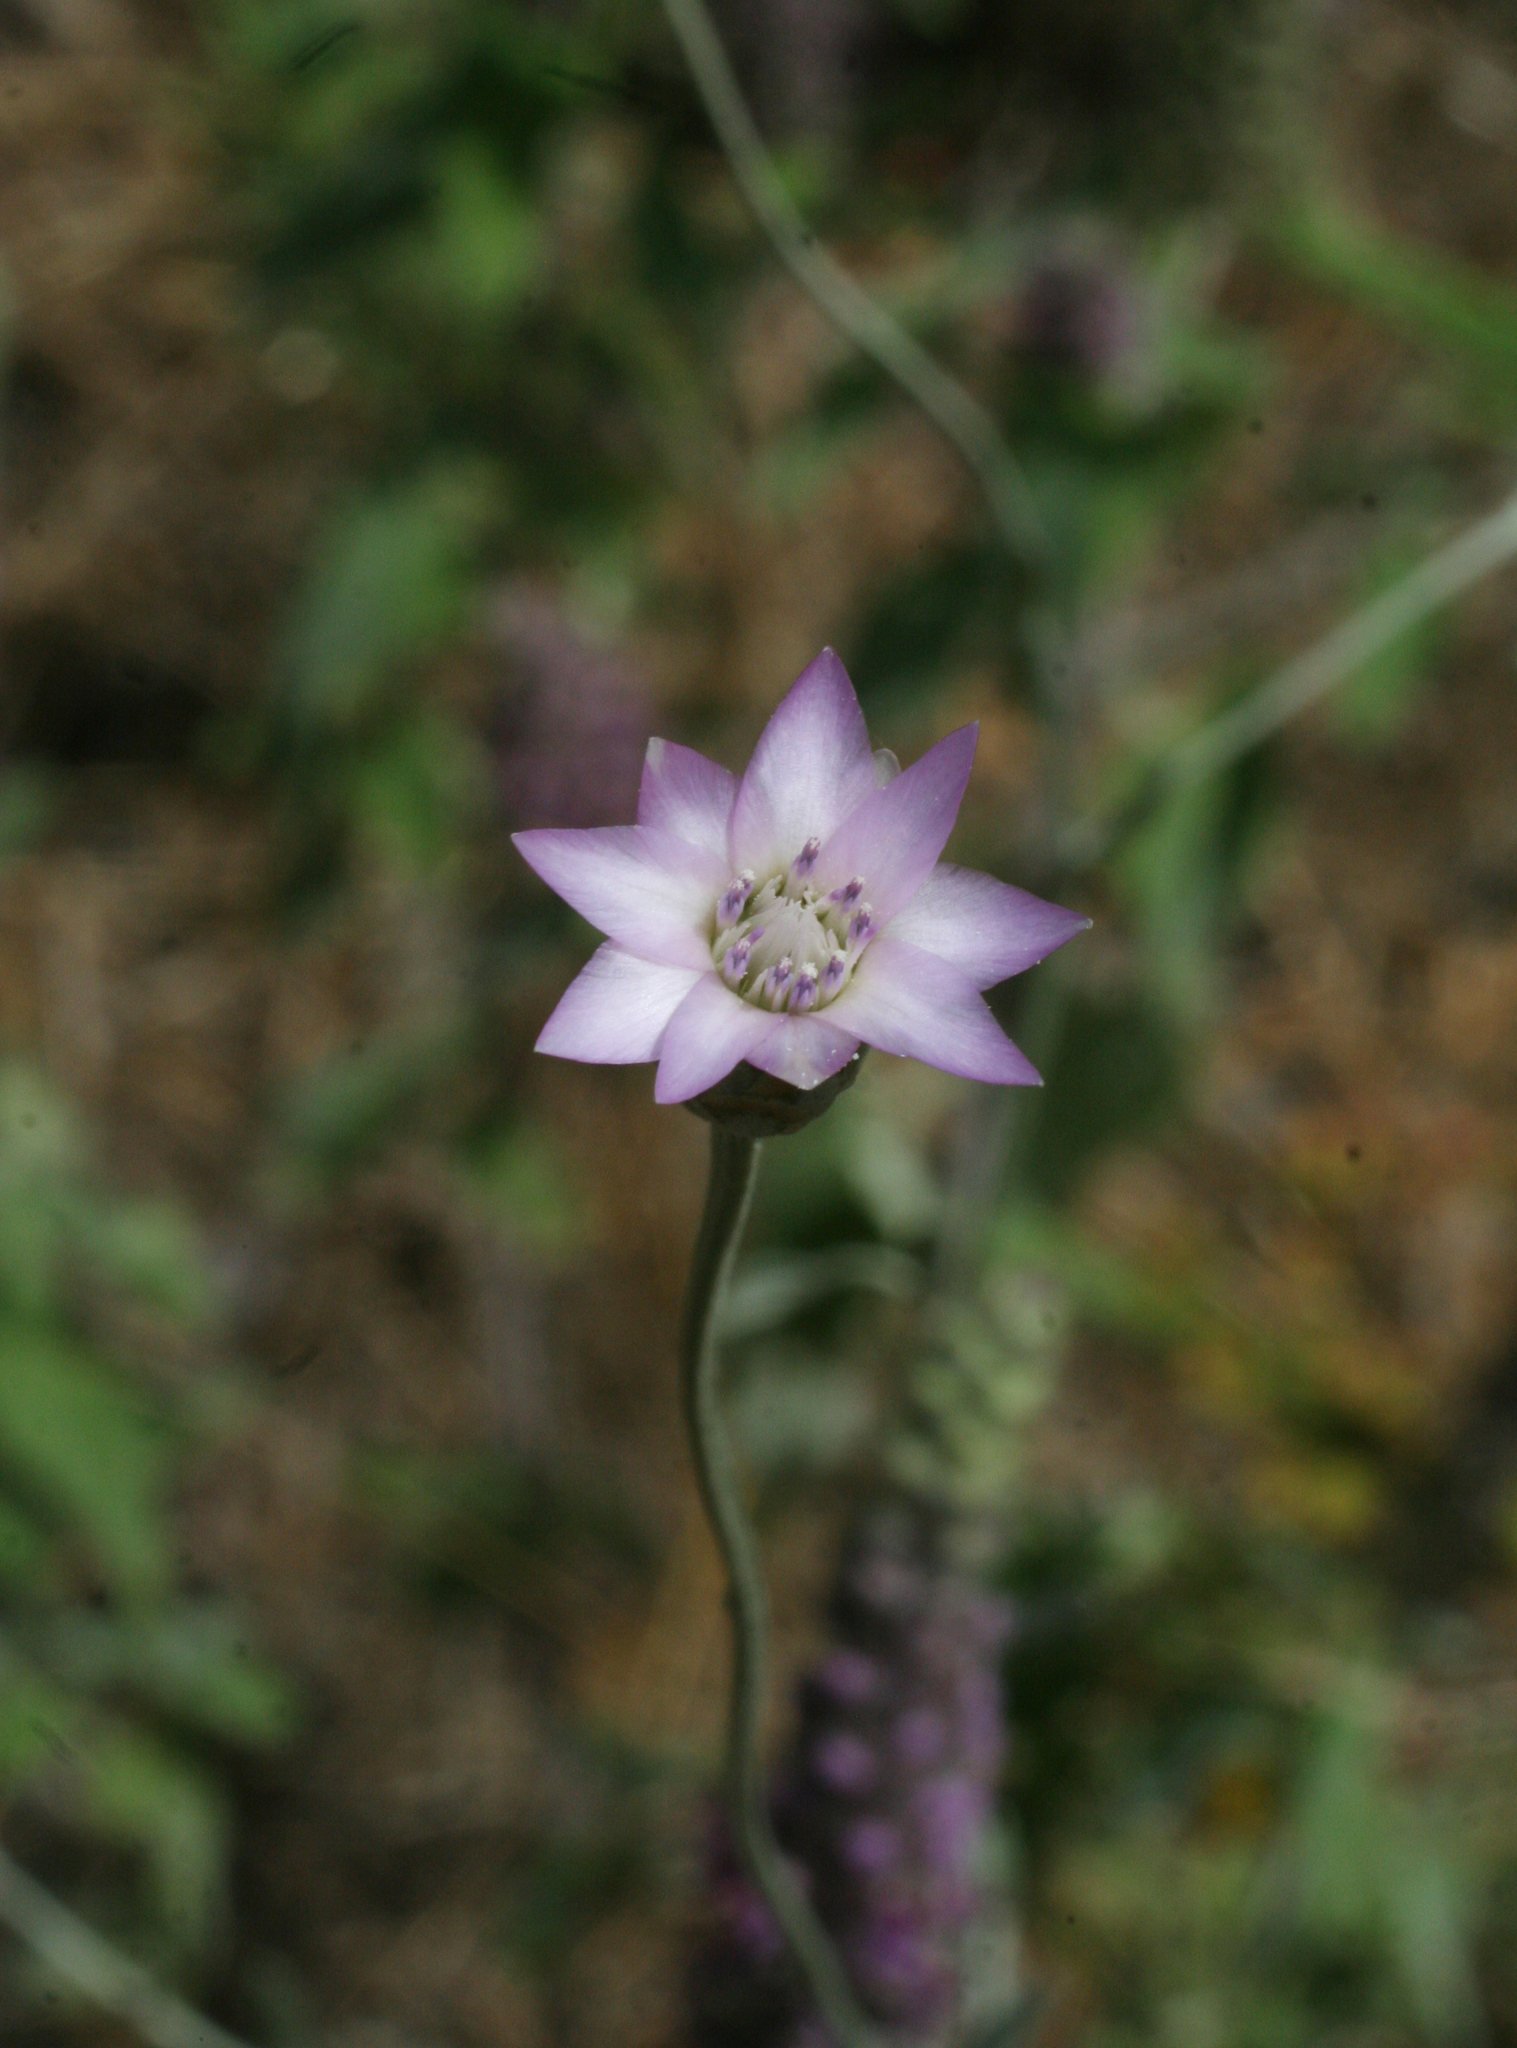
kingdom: Plantae
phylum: Tracheophyta
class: Magnoliopsida
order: Asterales
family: Asteraceae
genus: Xeranthemum
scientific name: Xeranthemum cylindraceum
